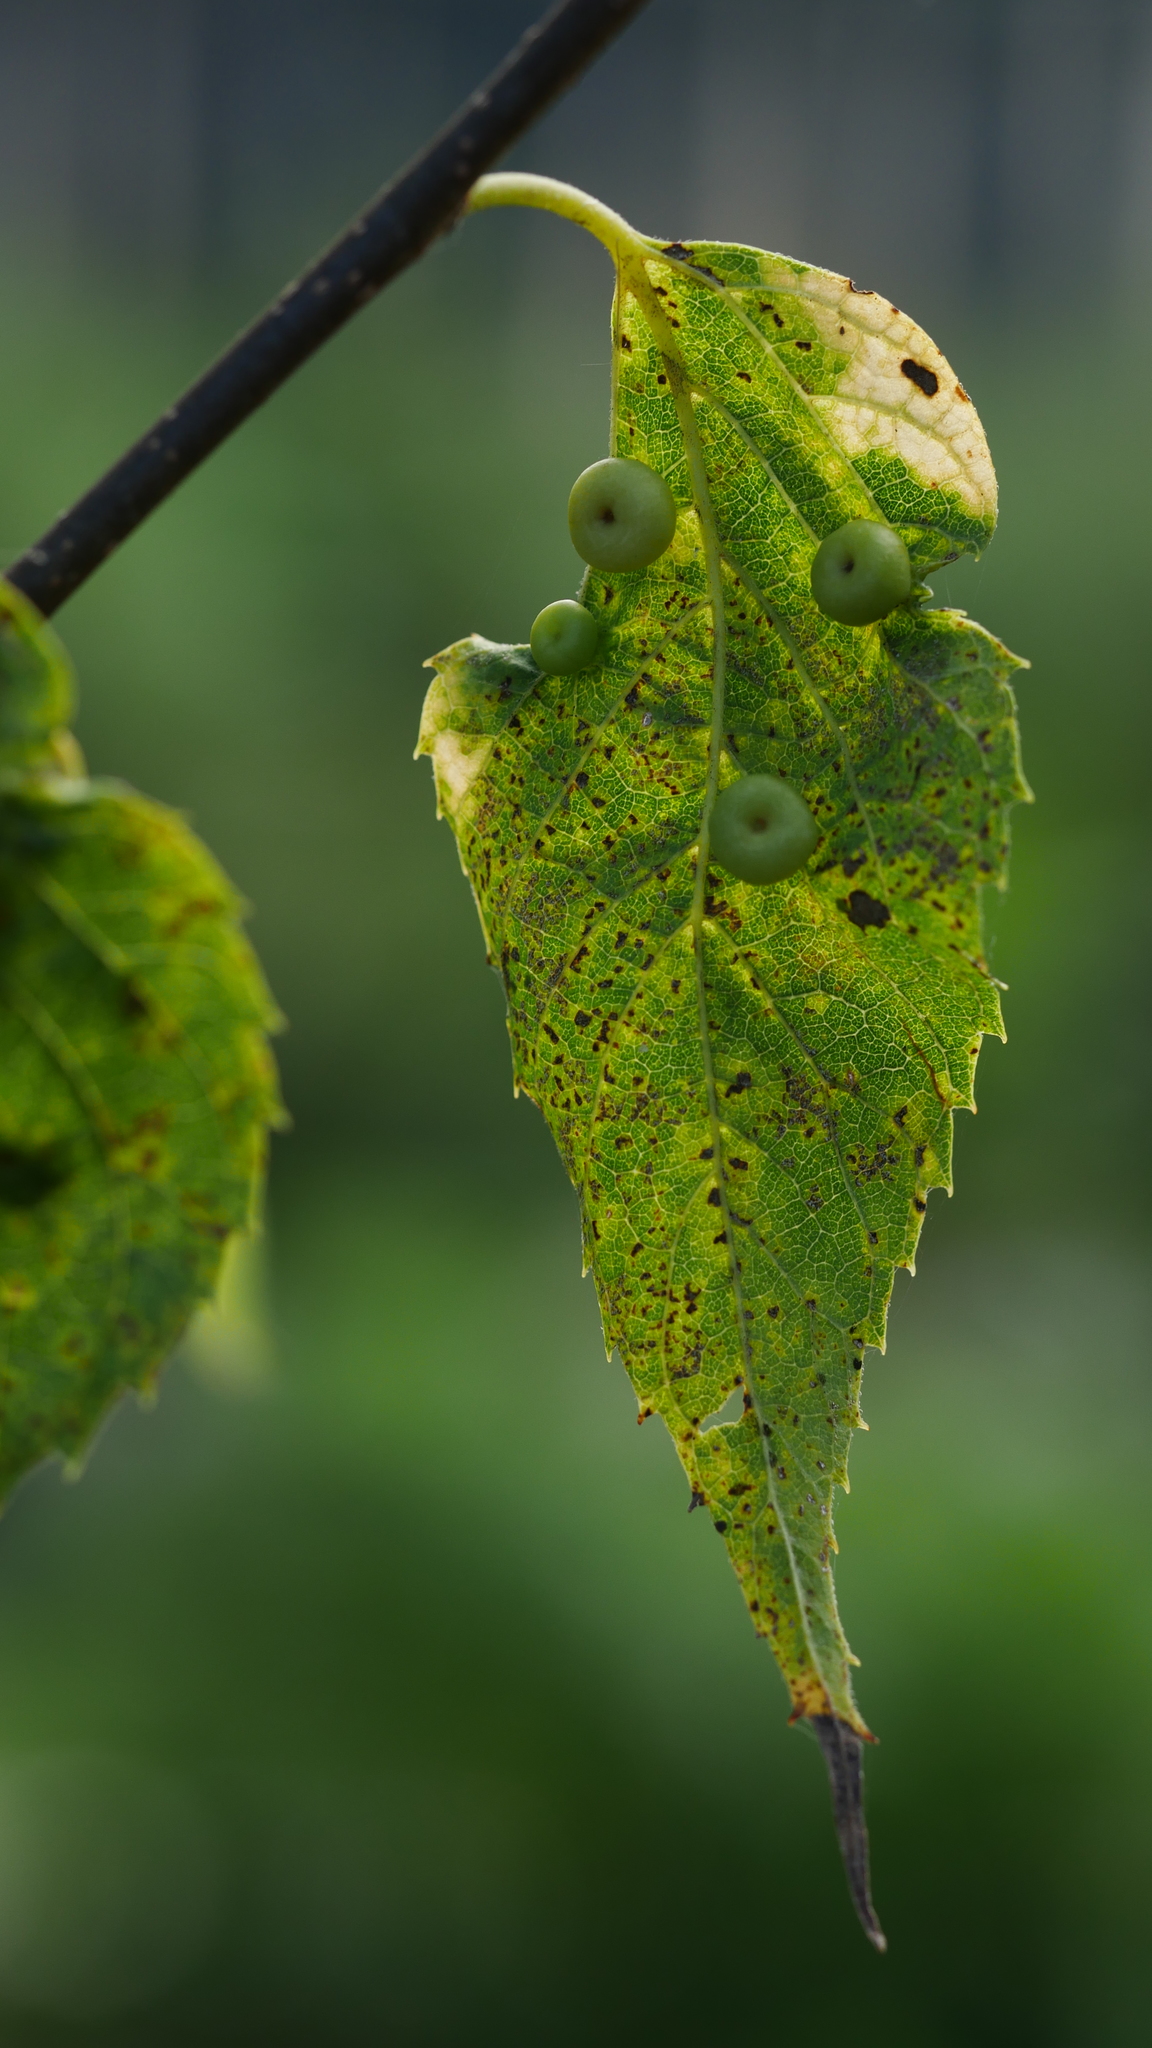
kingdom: Animalia
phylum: Arthropoda
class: Insecta
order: Hemiptera
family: Aphalaridae
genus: Pachypsylla
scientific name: Pachypsylla celtidismamma
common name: Hackberry nipplegall psyllid
